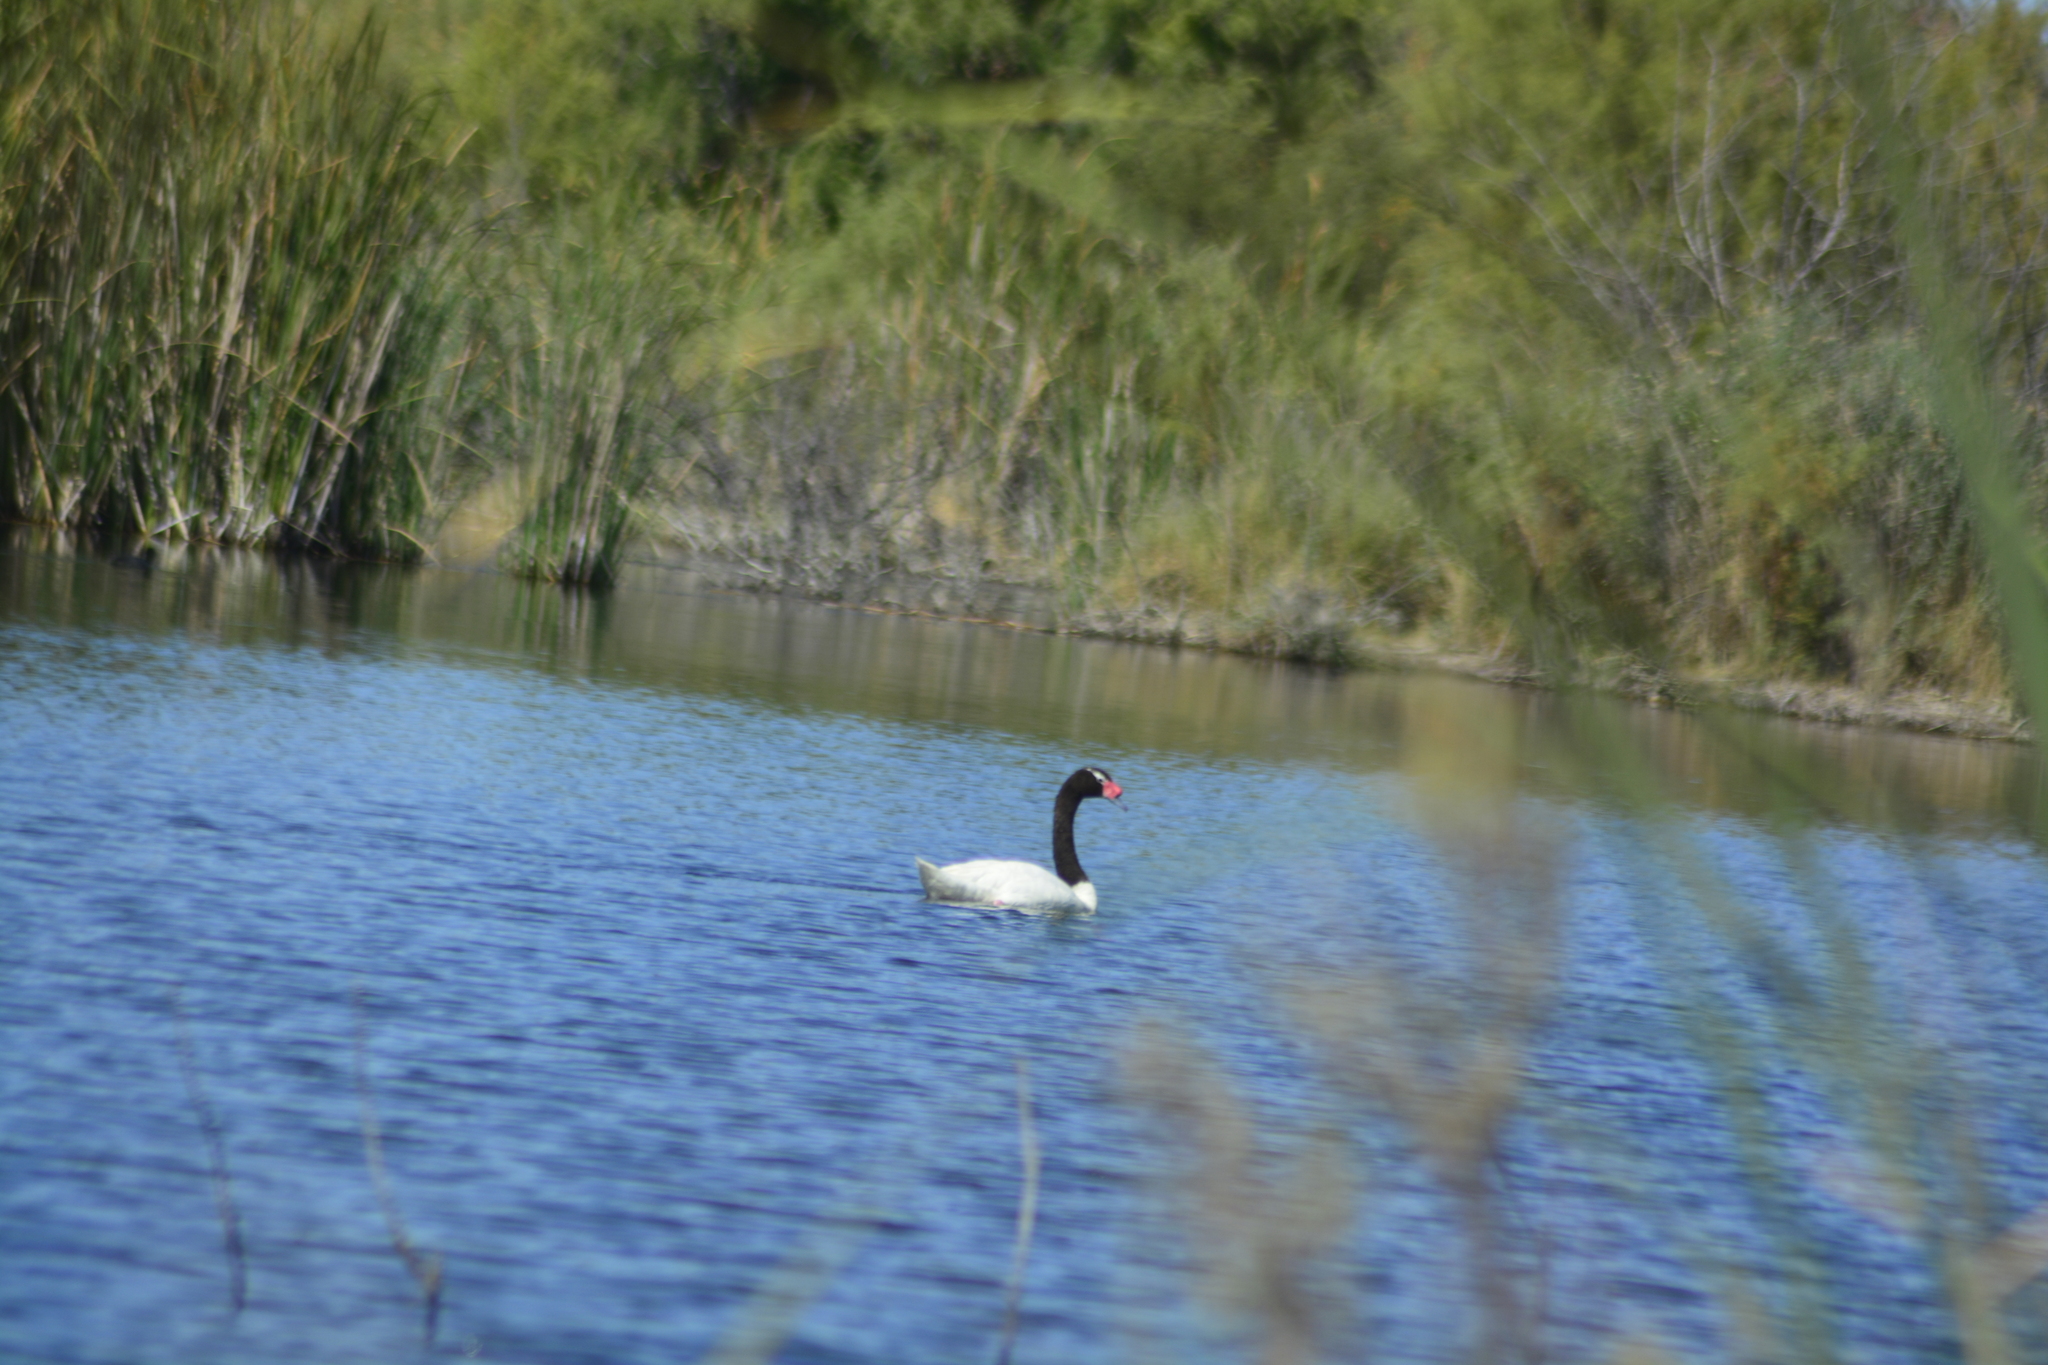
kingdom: Animalia
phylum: Chordata
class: Aves
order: Anseriformes
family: Anatidae
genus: Cygnus
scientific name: Cygnus melancoryphus
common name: Black-necked swan
